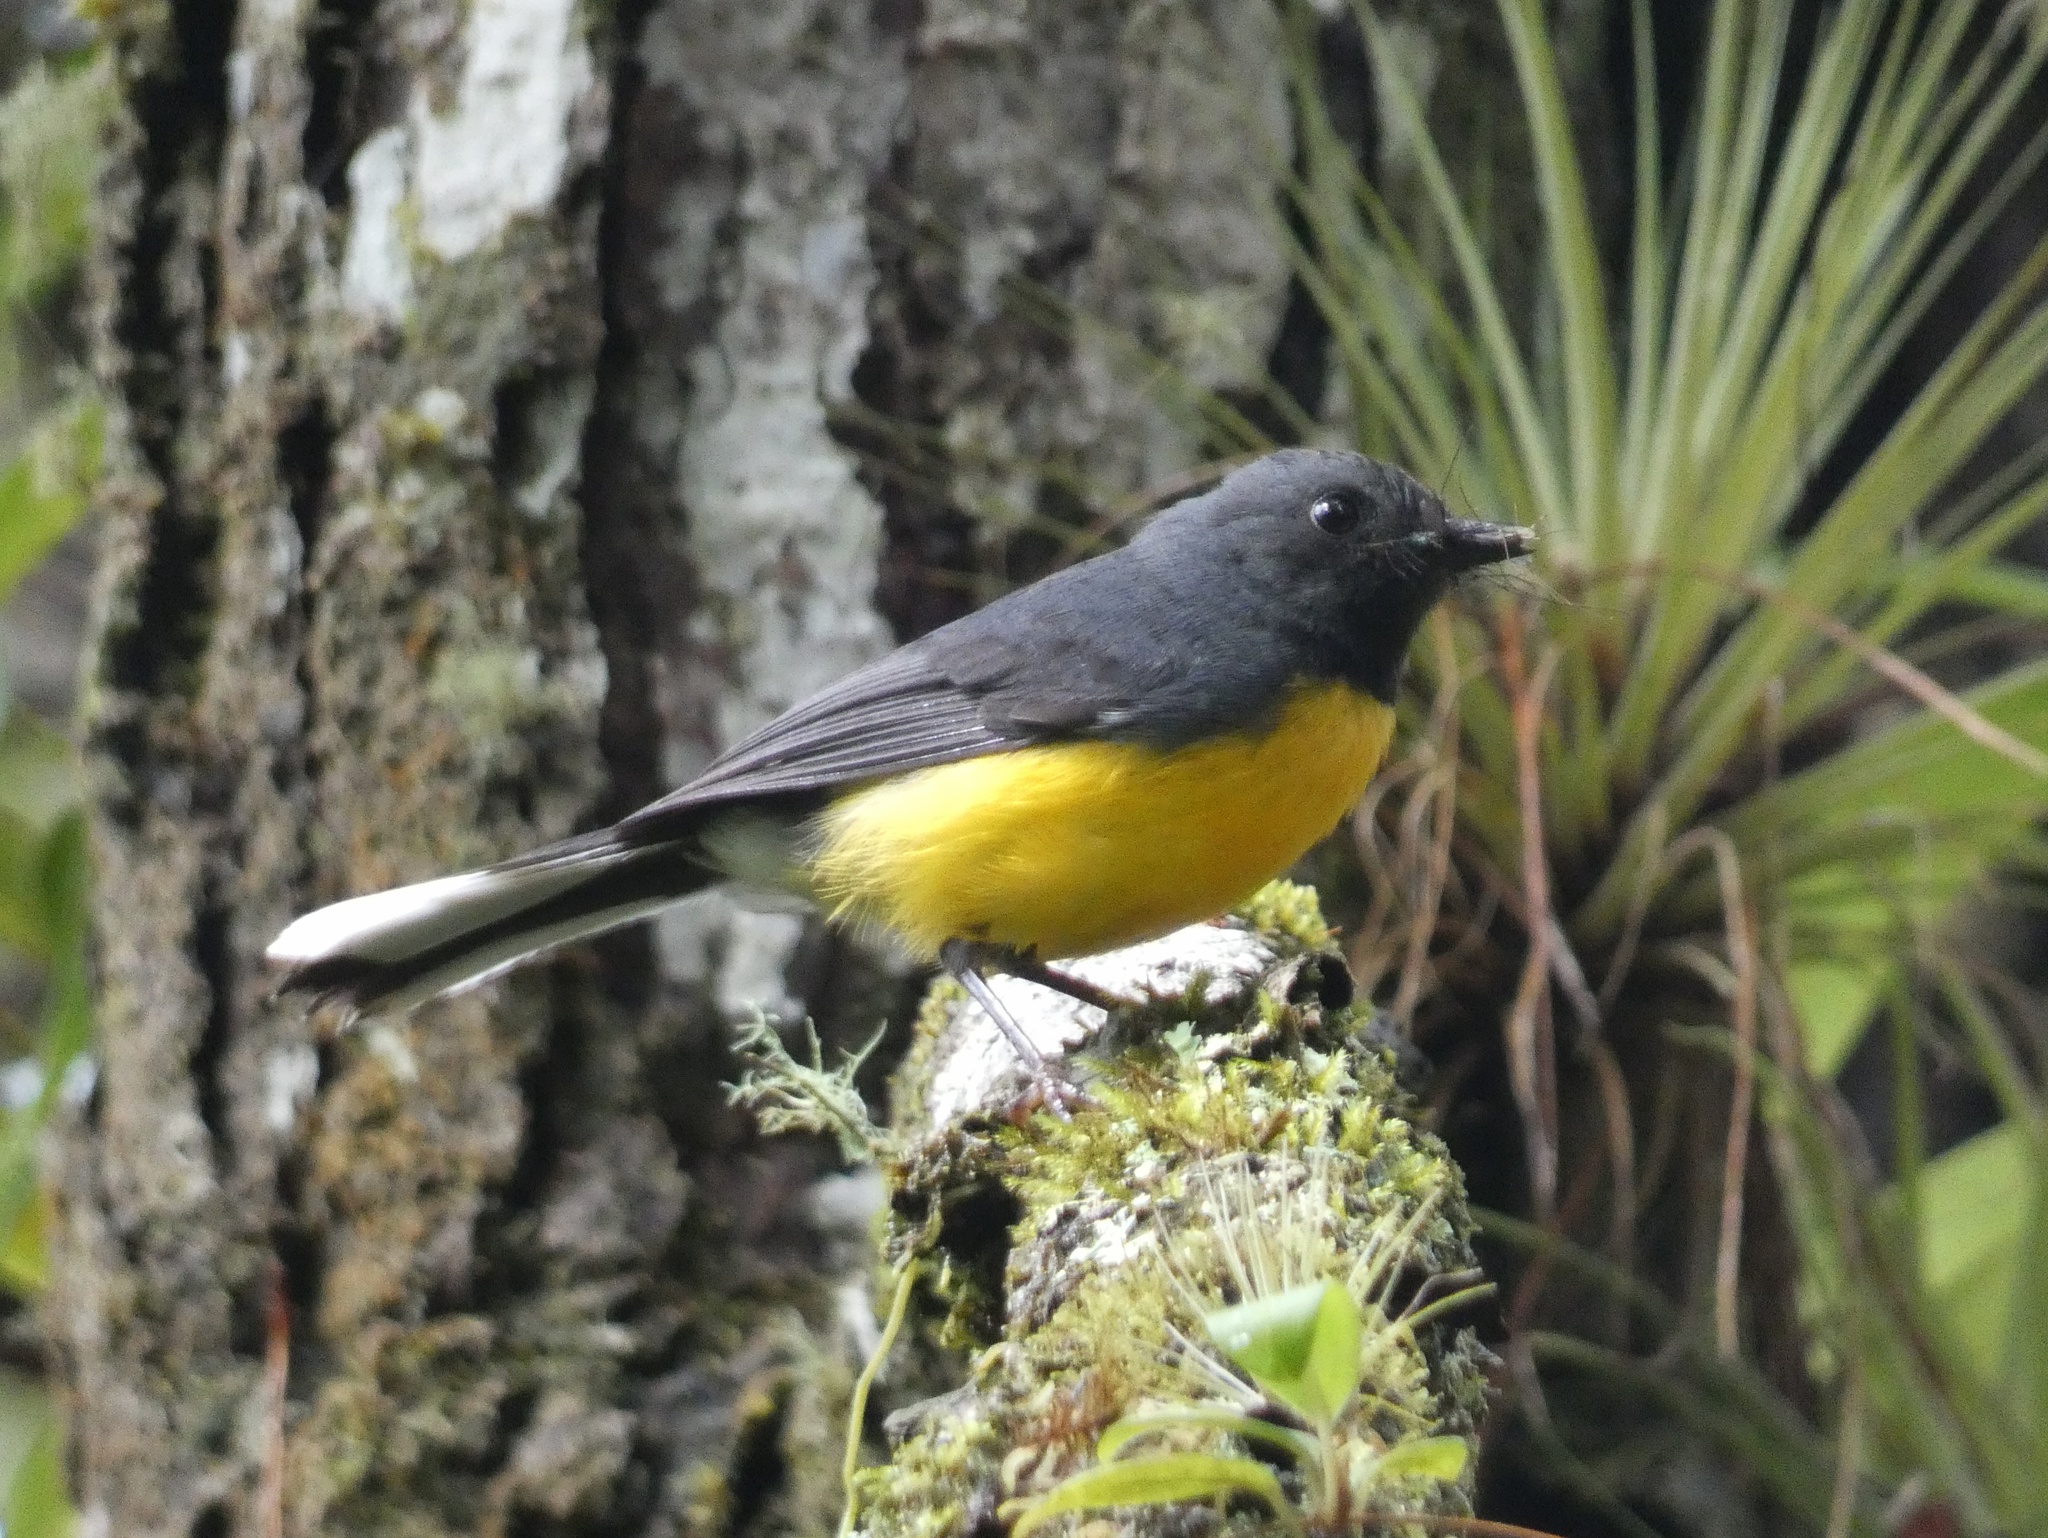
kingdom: Animalia
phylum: Chordata
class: Aves
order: Passeriformes
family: Parulidae
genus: Myioborus
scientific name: Myioborus miniatus
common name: Slate-throated redstart
